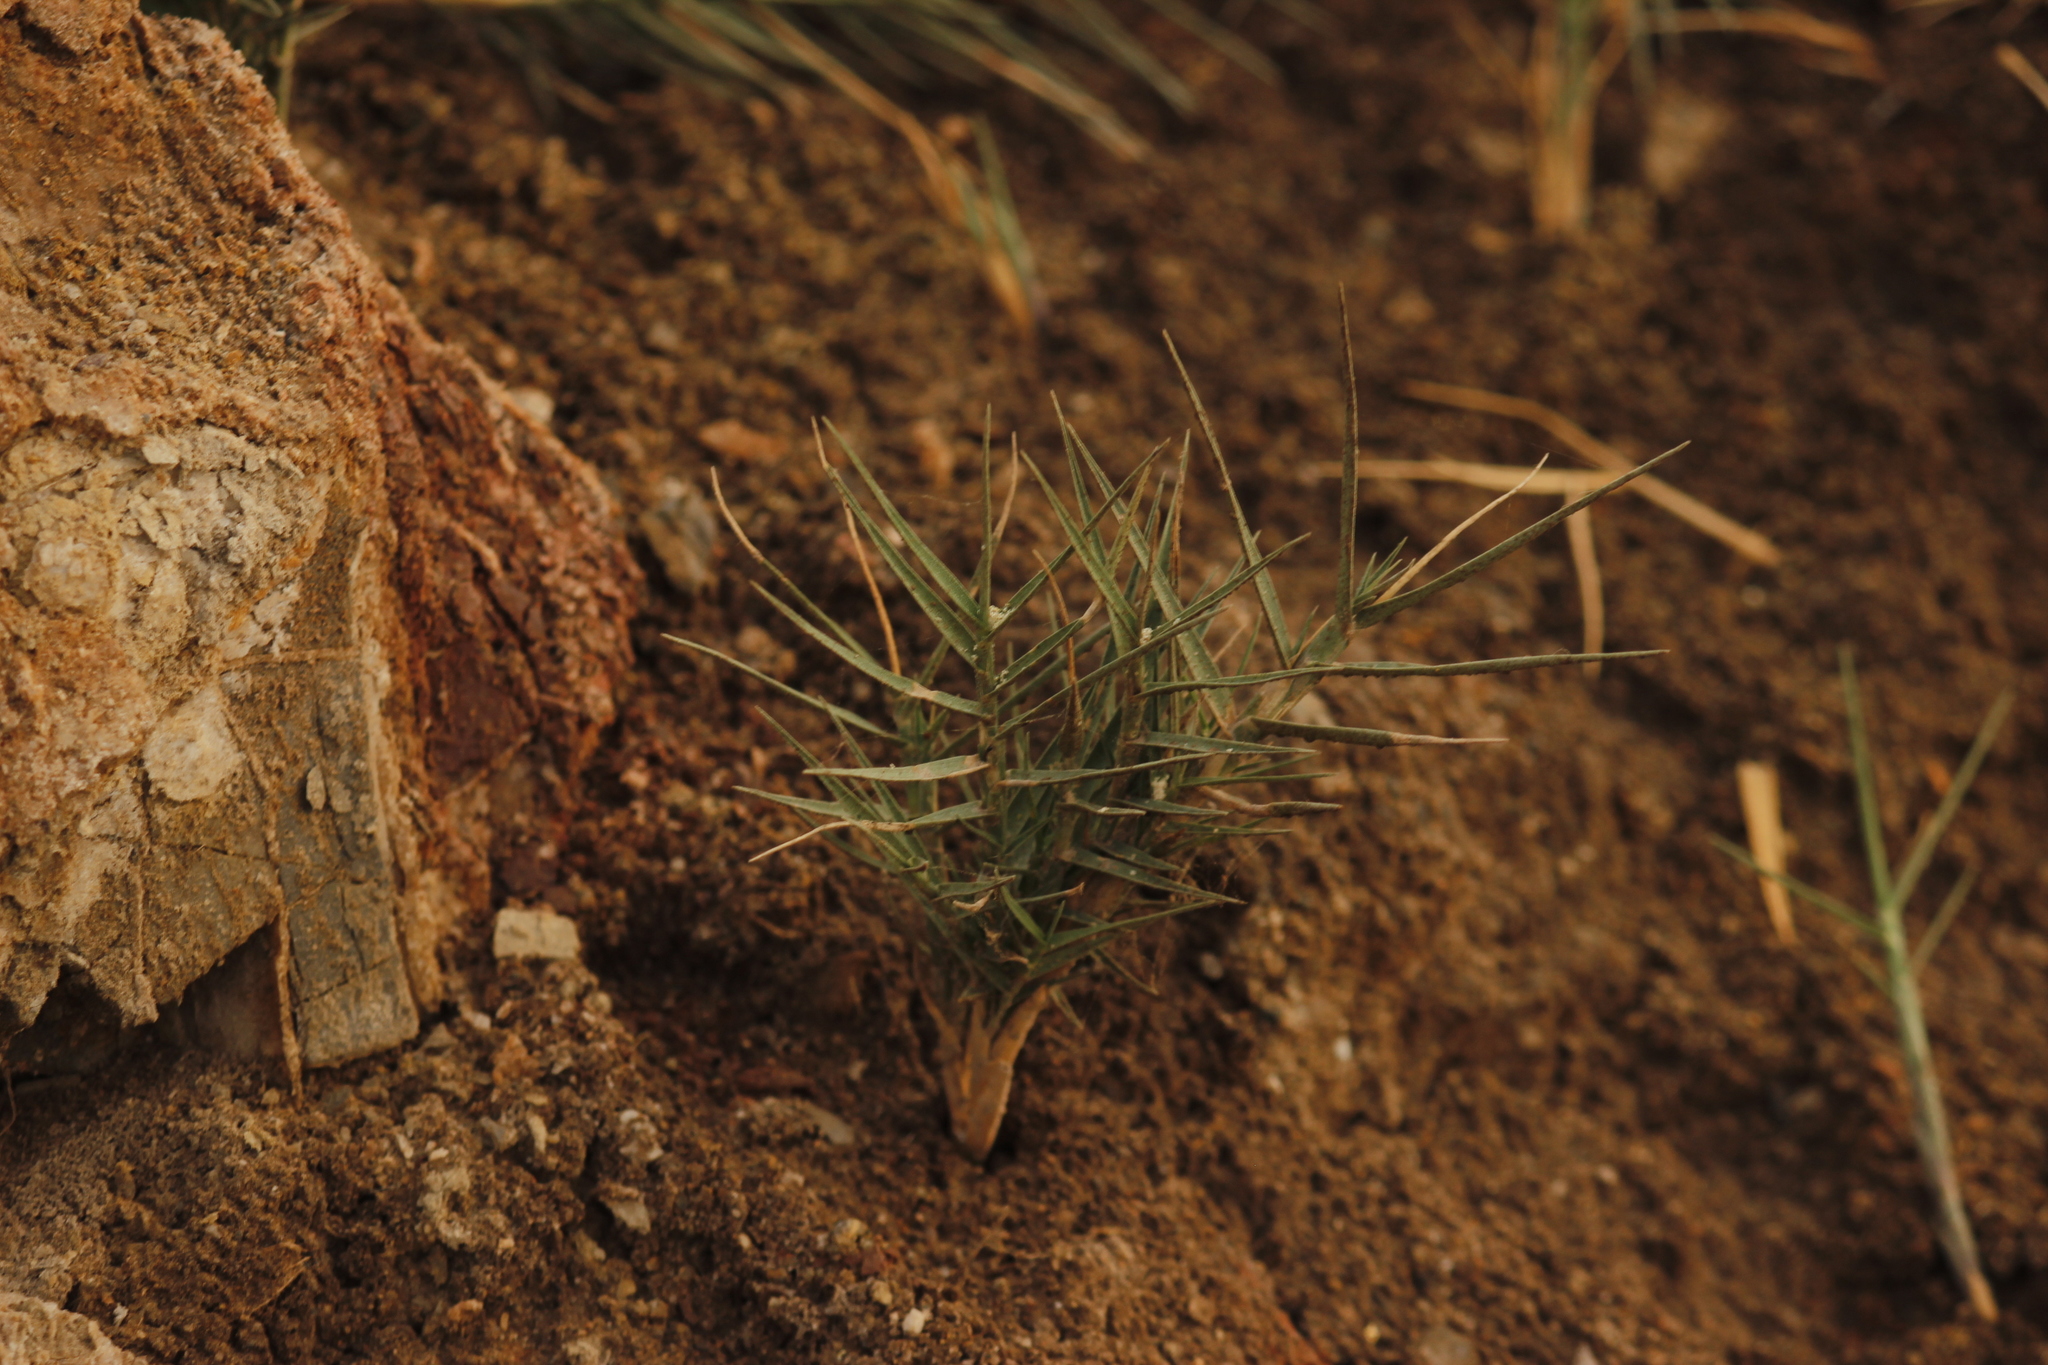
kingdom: Plantae
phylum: Tracheophyta
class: Liliopsida
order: Poales
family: Poaceae
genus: Distichlis
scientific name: Distichlis spicata
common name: Saltgrass
